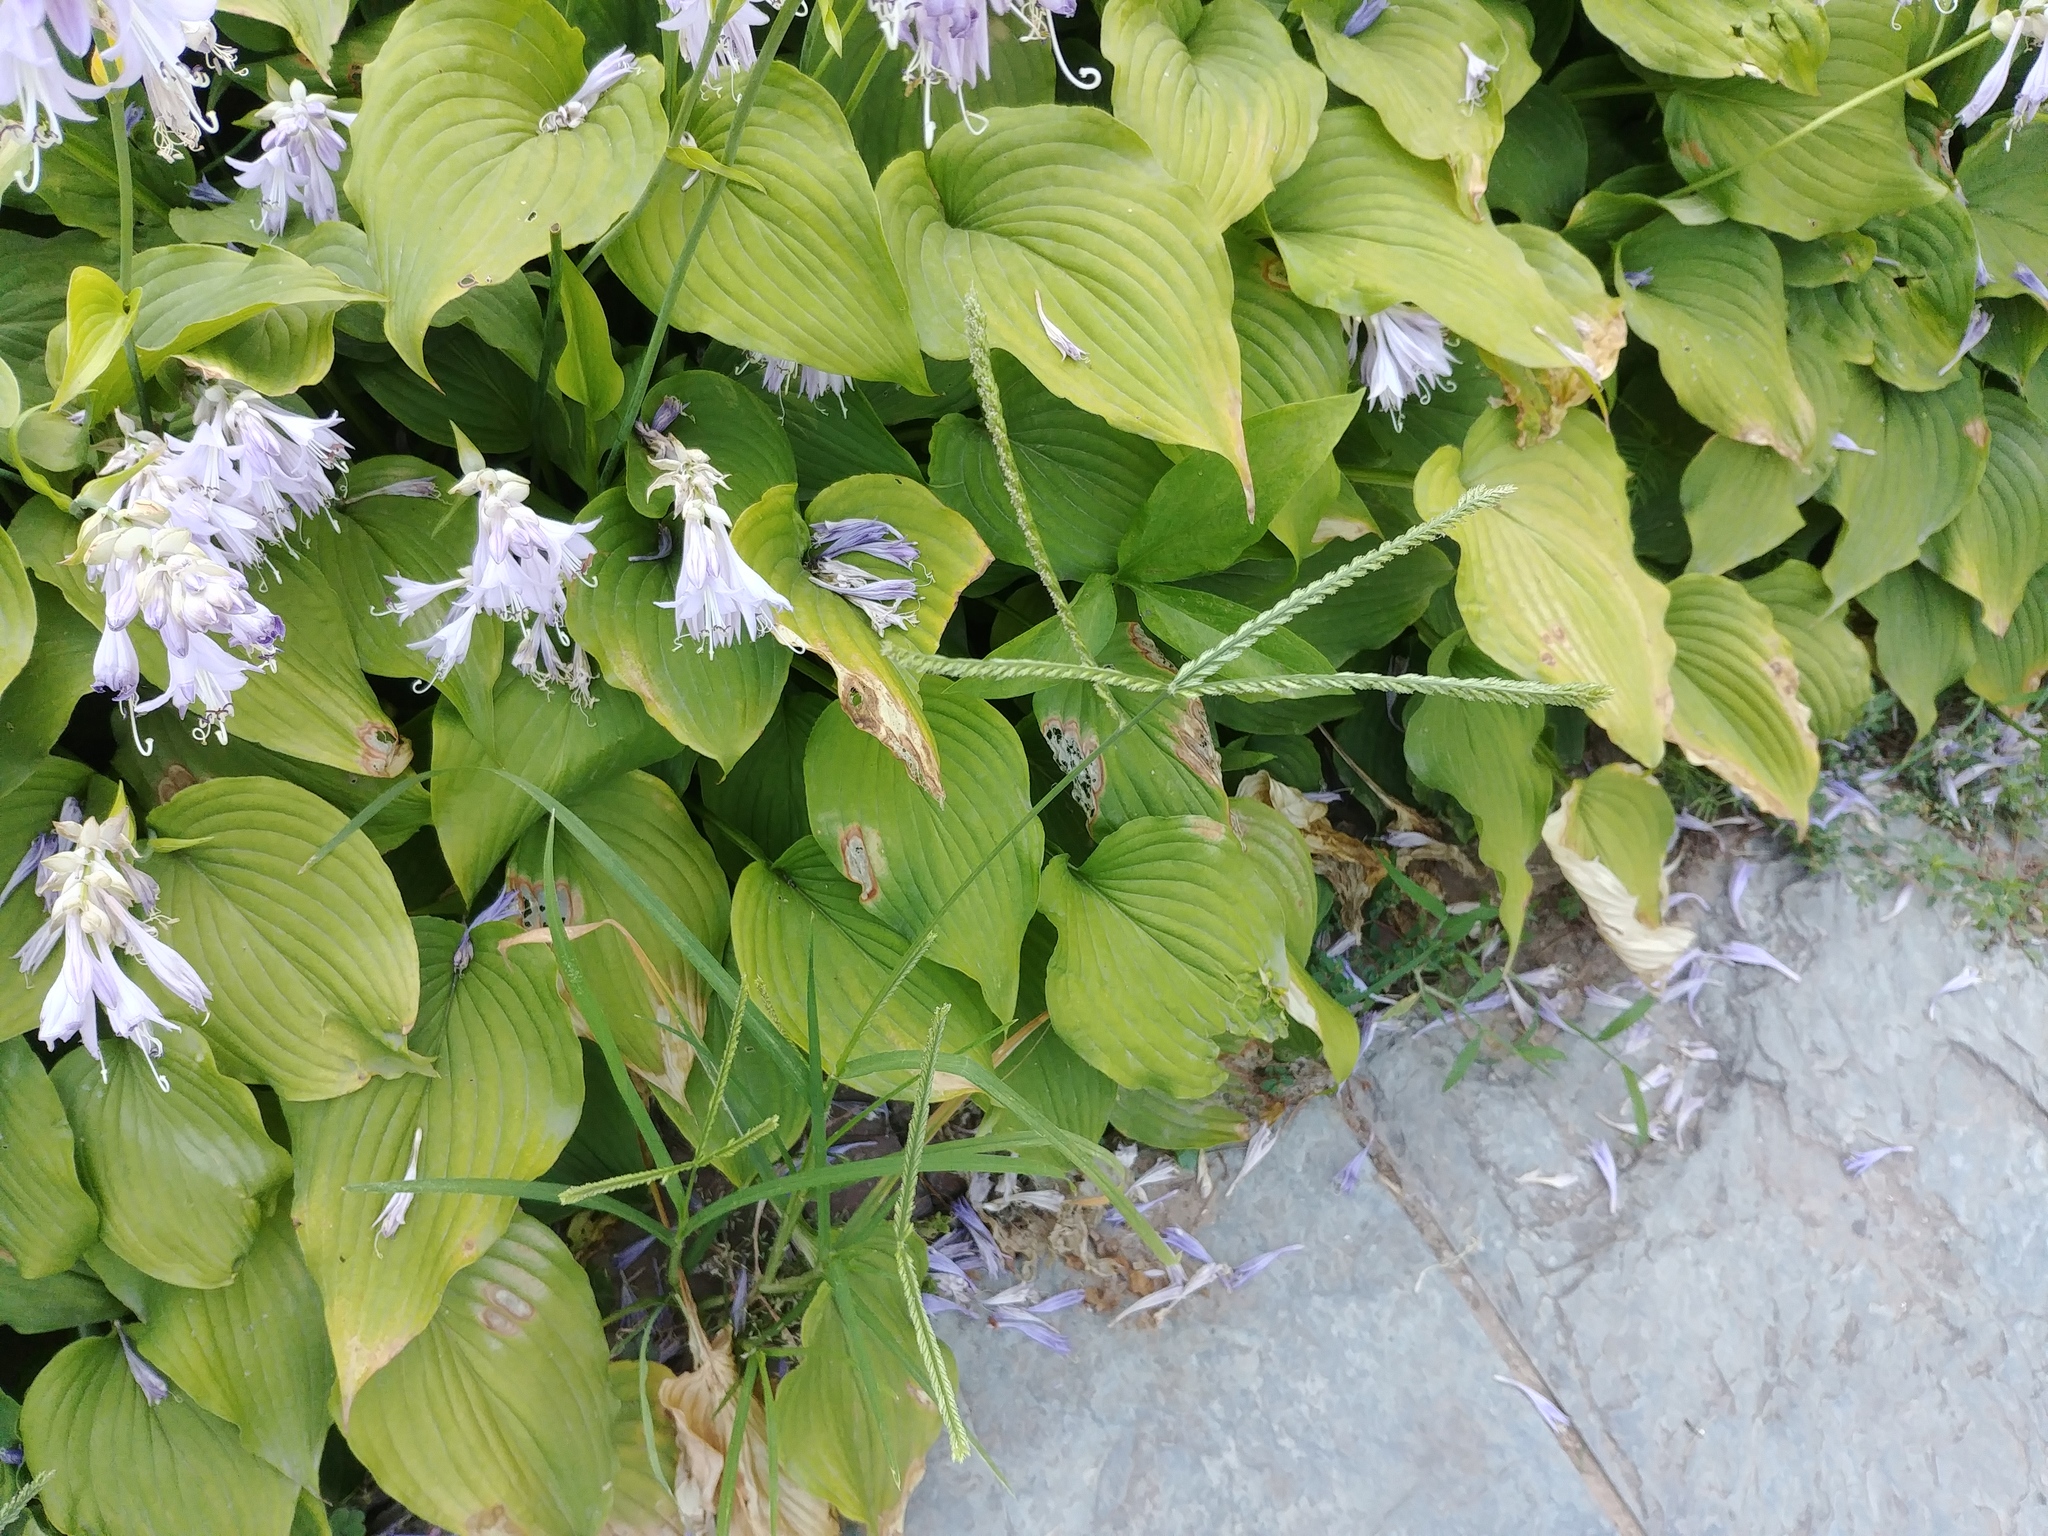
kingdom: Plantae
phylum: Tracheophyta
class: Liliopsida
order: Poales
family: Poaceae
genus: Eleusine
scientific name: Eleusine indica
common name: Yard-grass
